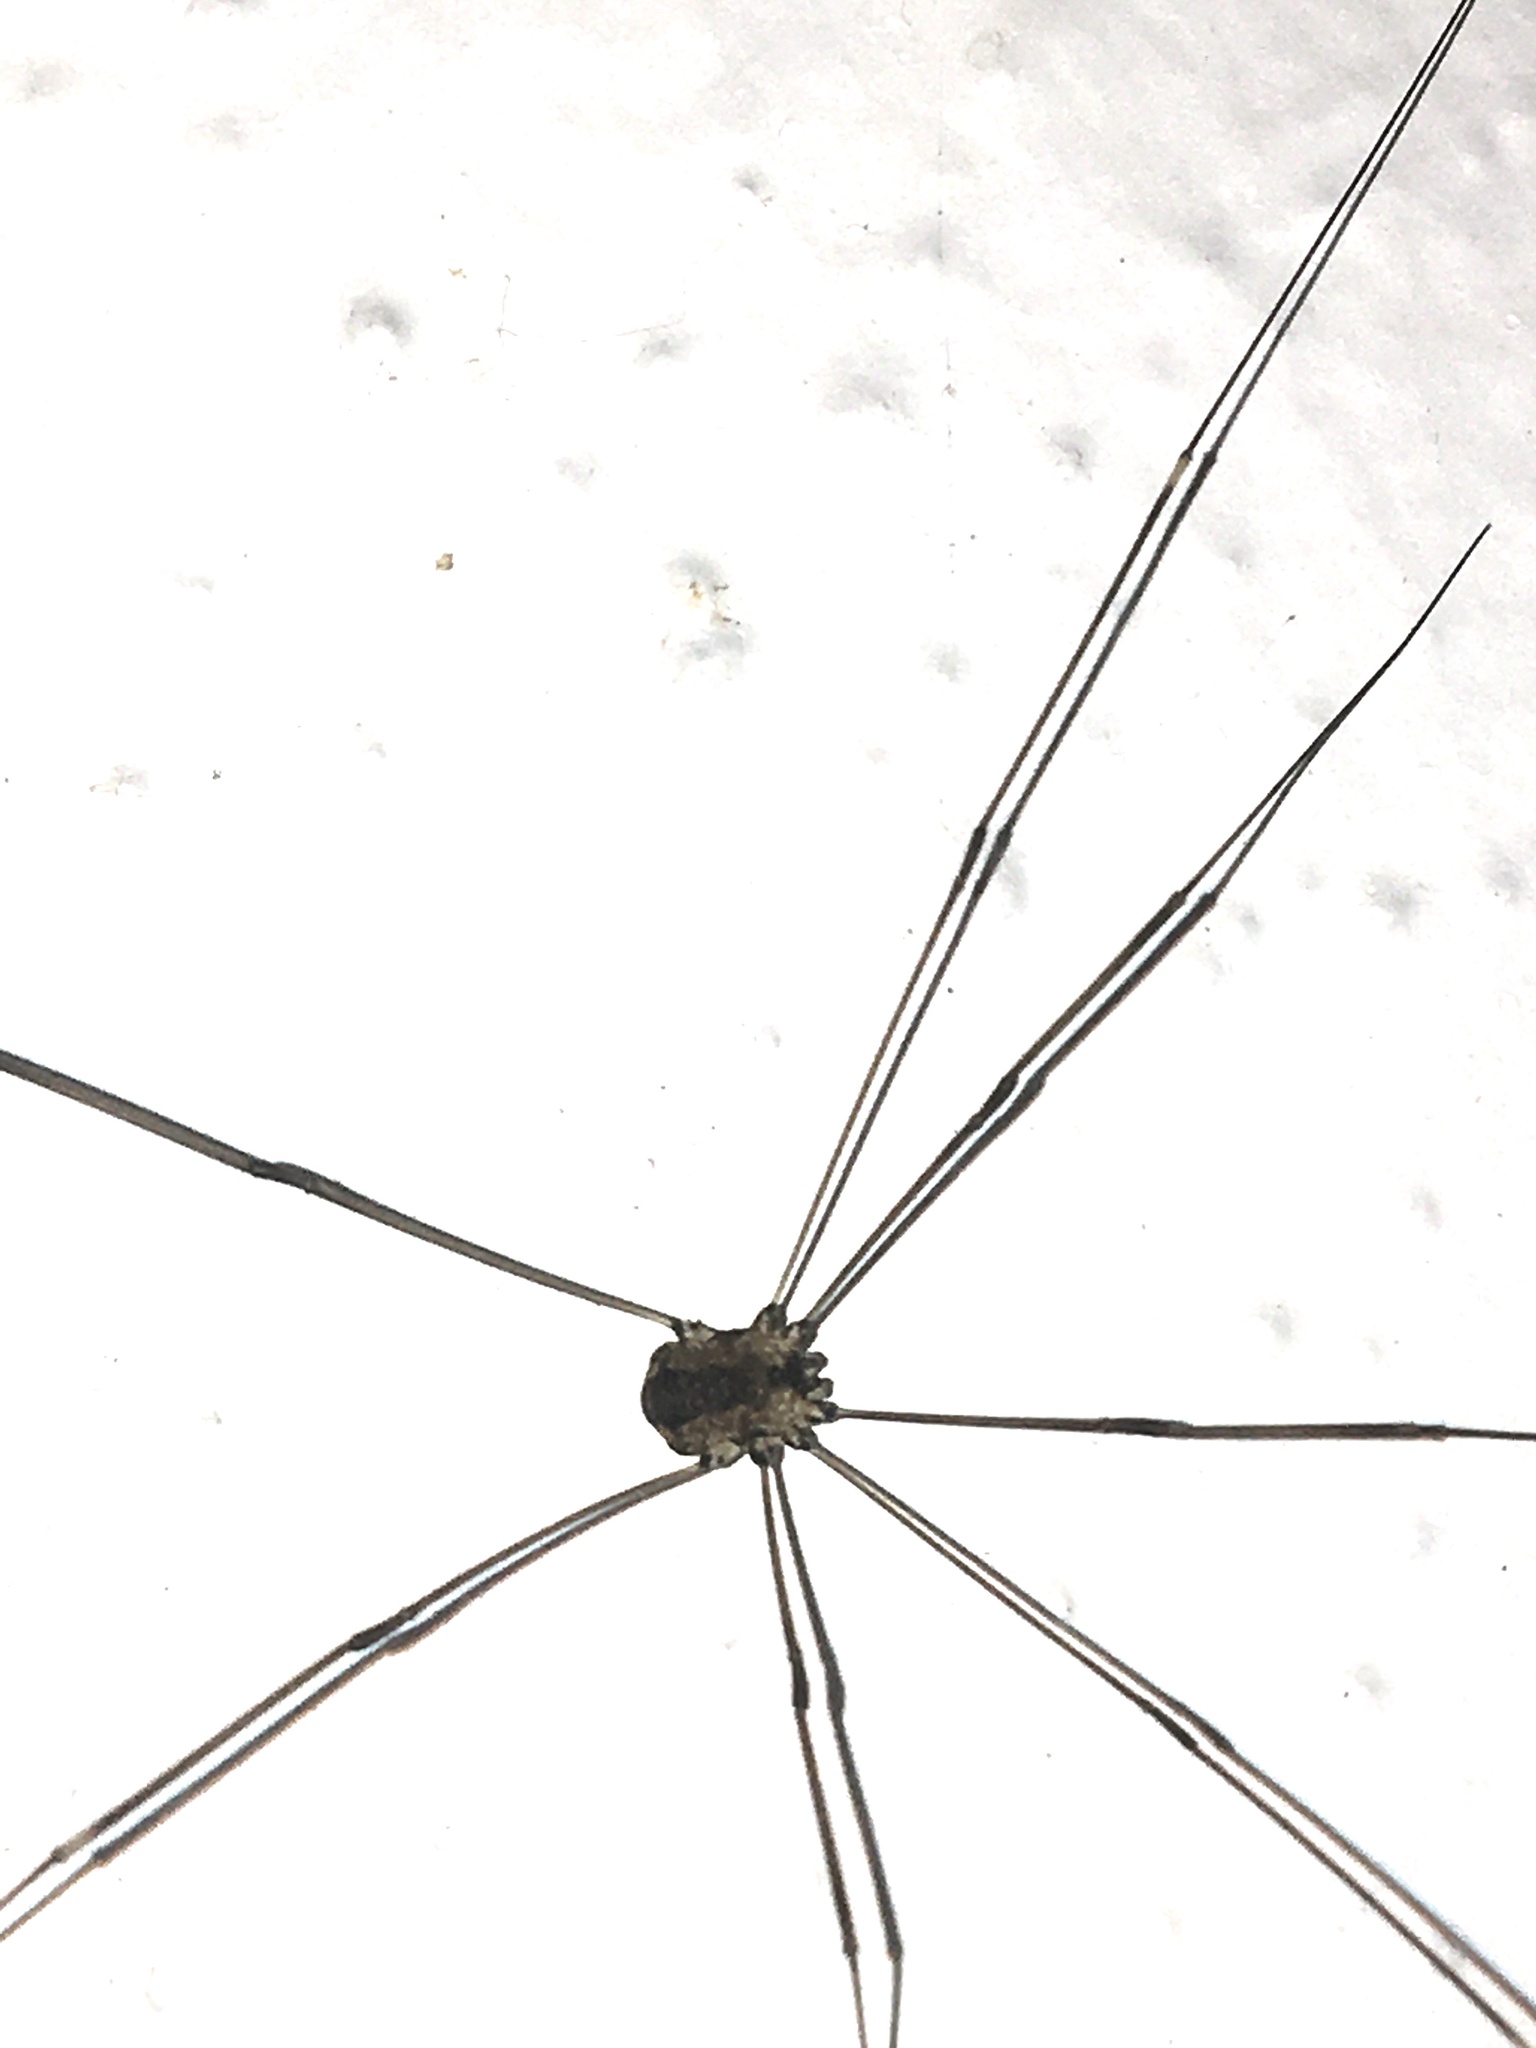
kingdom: Animalia
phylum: Arthropoda
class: Arachnida
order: Opiliones
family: Sclerosomatidae
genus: Leiobunum
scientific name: Leiobunum rotundum
